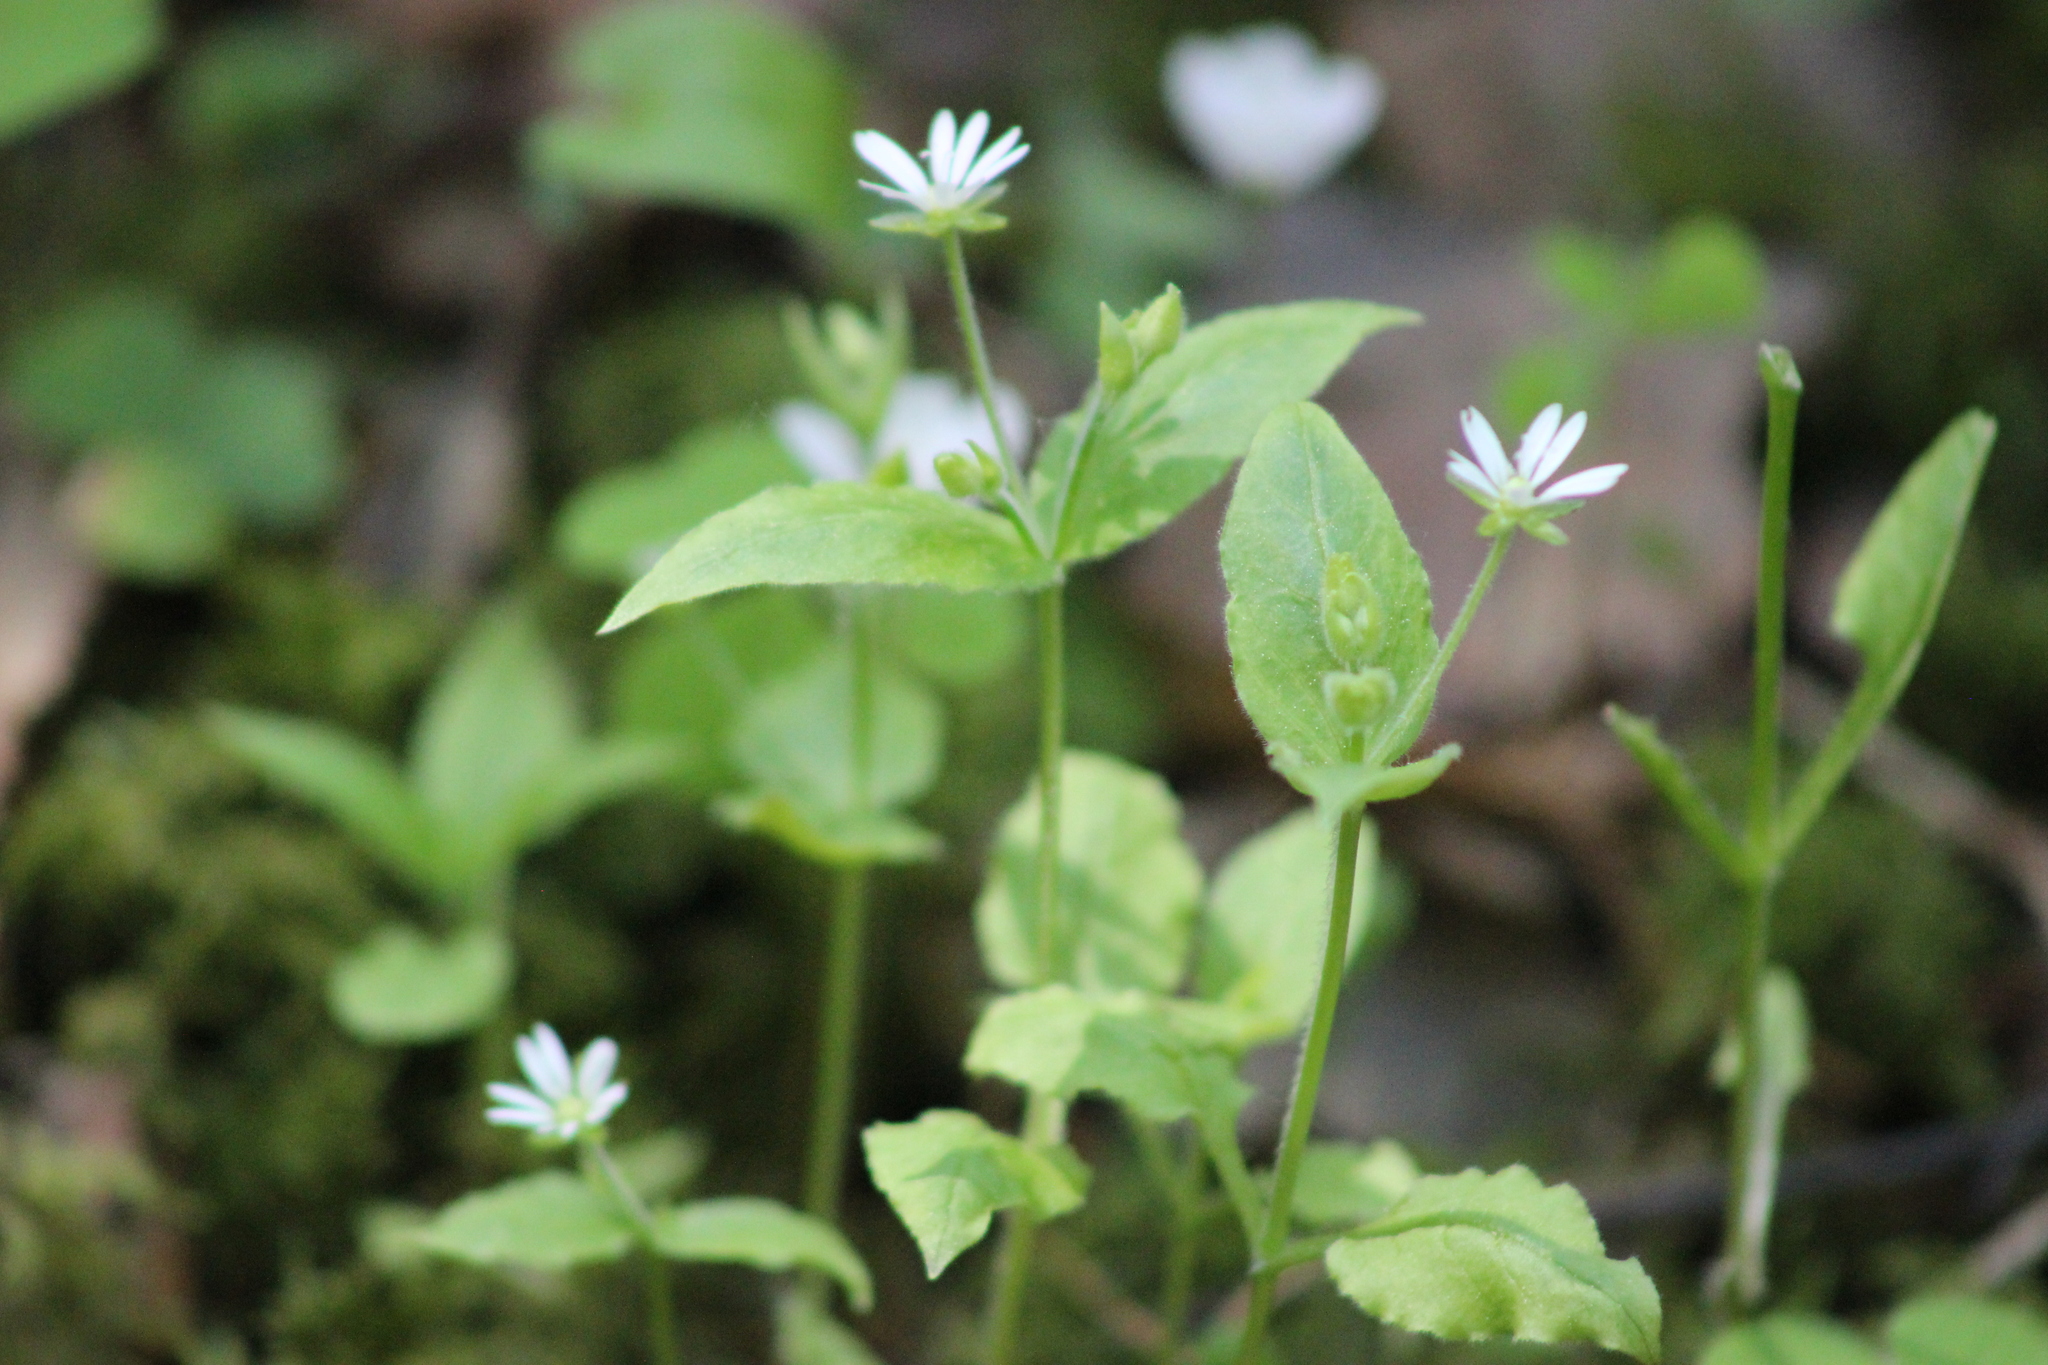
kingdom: Plantae
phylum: Tracheophyta
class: Magnoliopsida
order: Caryophyllales
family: Caryophyllaceae
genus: Stellaria
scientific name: Stellaria bungeana
